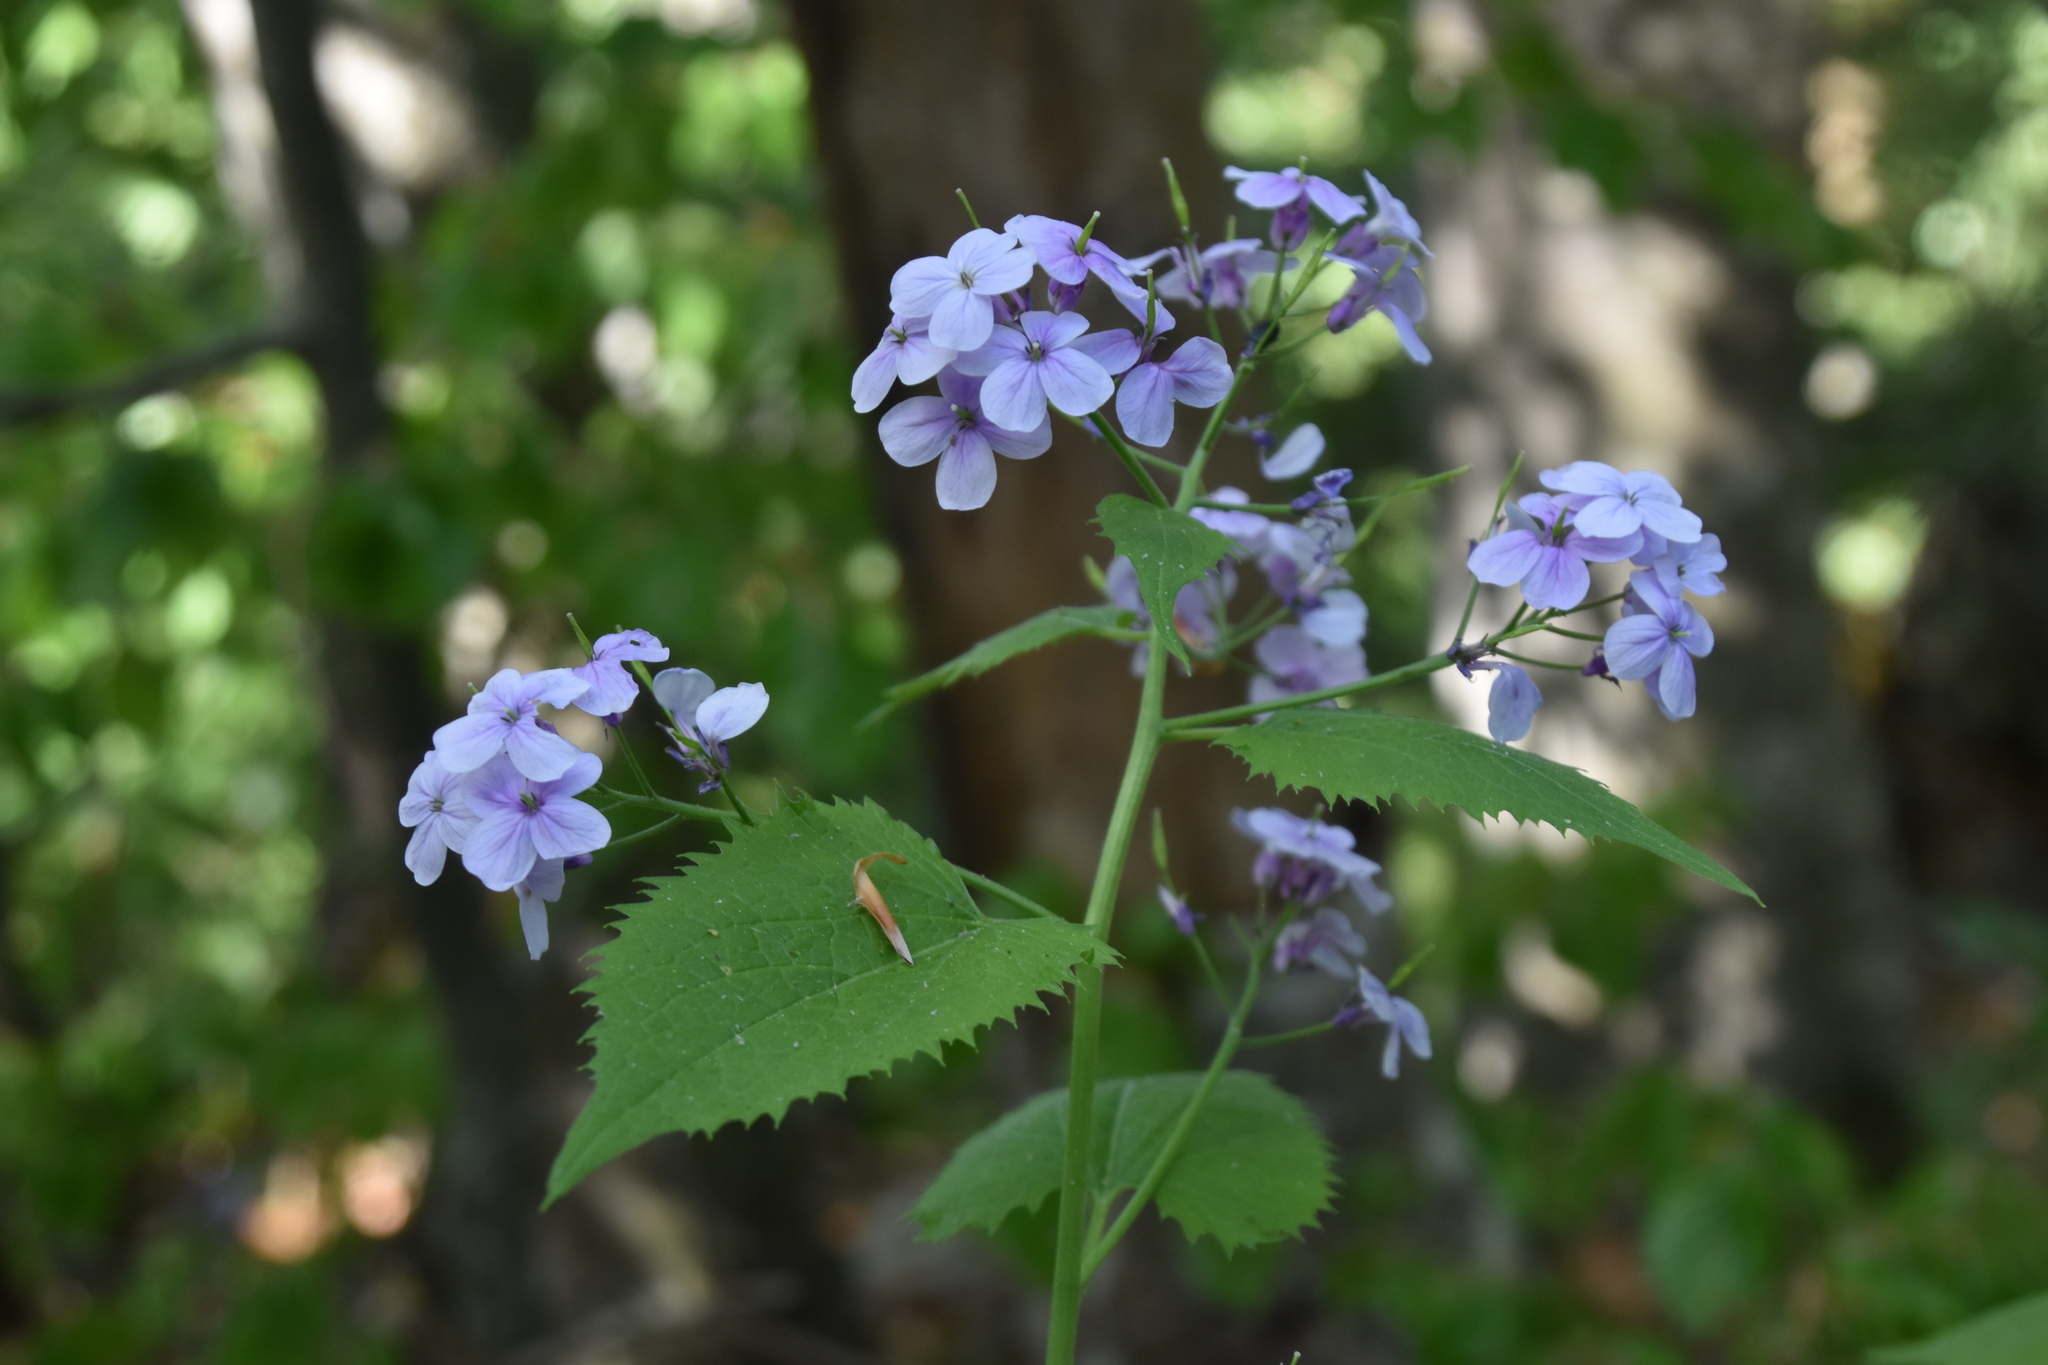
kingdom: Plantae
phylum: Tracheophyta
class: Magnoliopsida
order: Brassicales
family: Brassicaceae
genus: Lunaria
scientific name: Lunaria rediviva
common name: Perennial honesty
